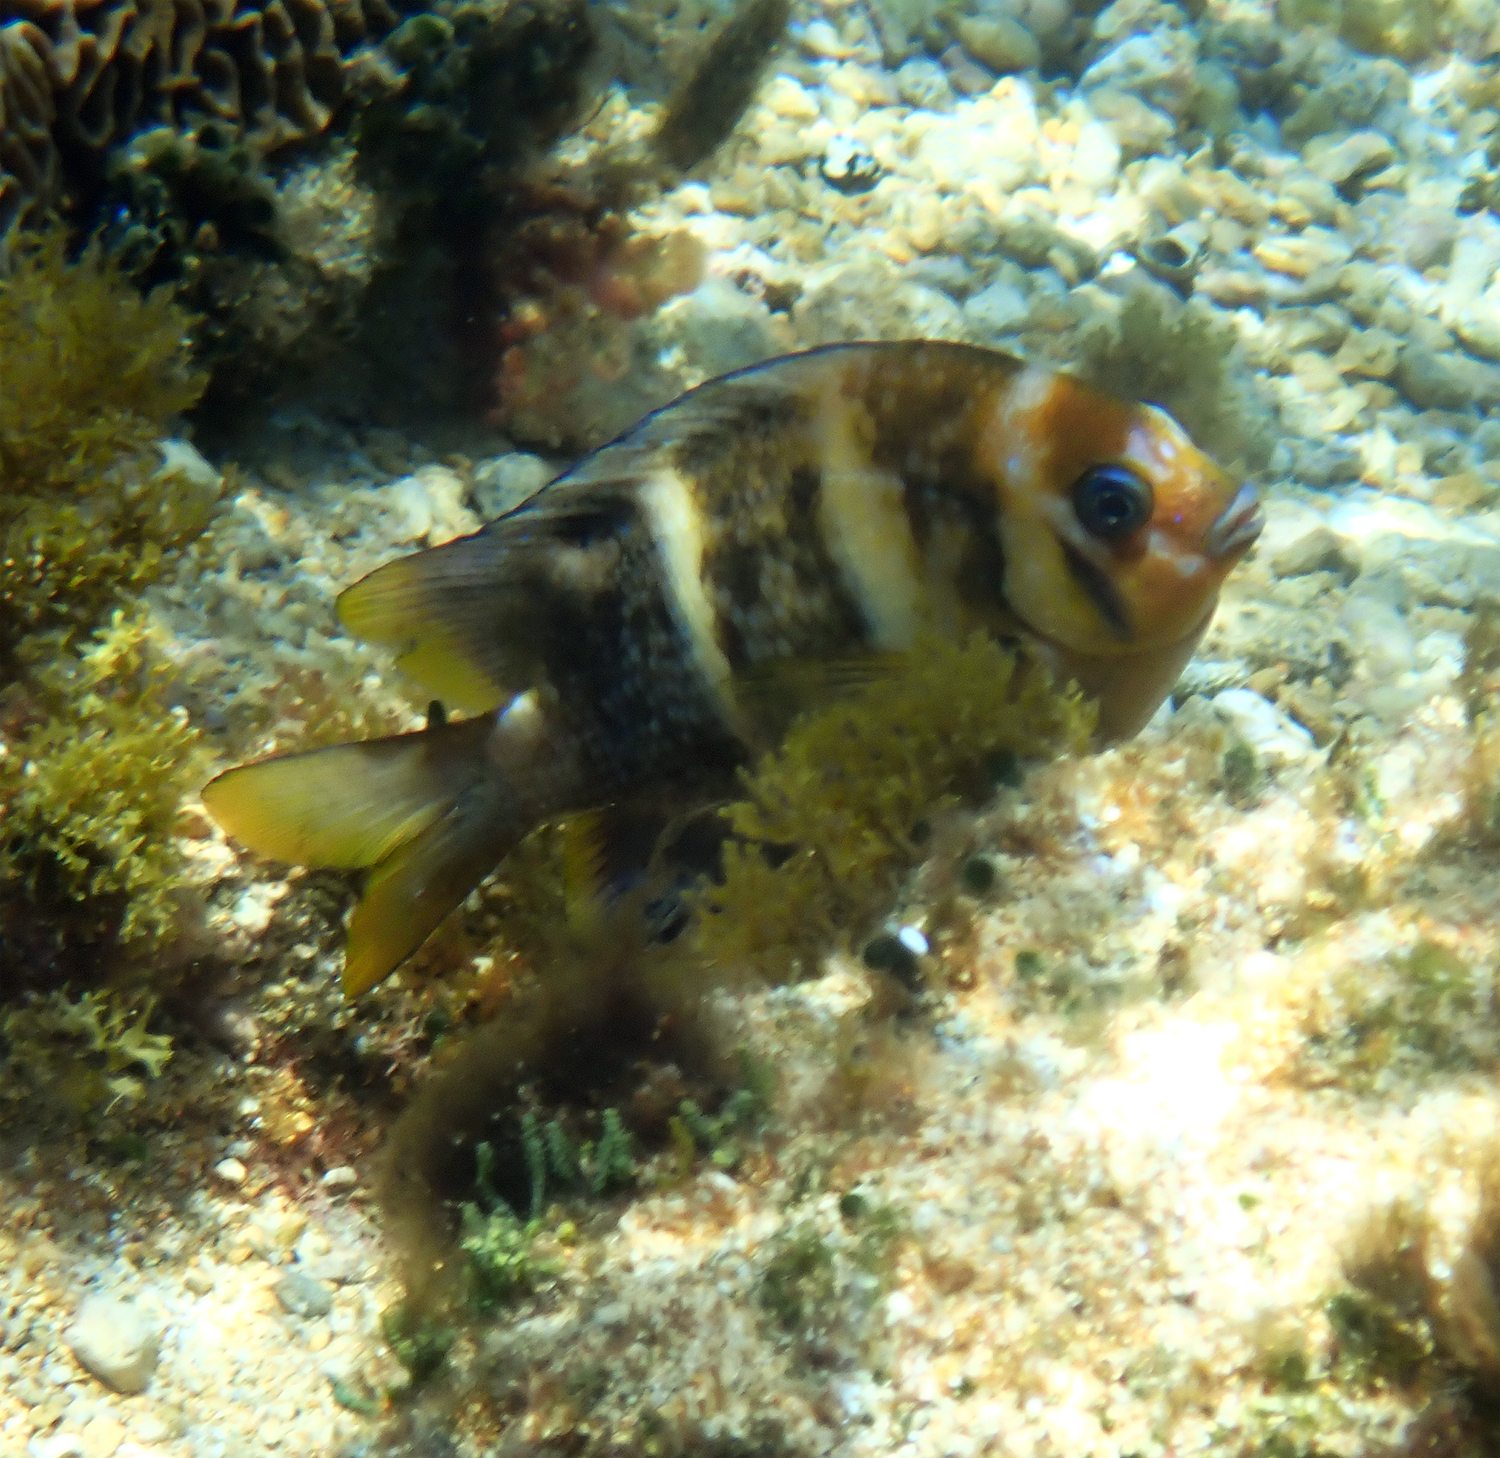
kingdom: Animalia
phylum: Chordata
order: Perciformes
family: Pomacentridae
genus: Parma
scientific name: Parma polylepis
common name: Banded parma
